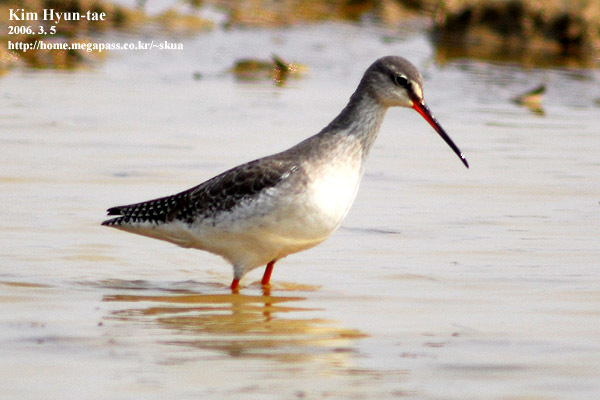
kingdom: Animalia
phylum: Chordata
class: Aves
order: Charadriiformes
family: Scolopacidae
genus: Tringa
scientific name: Tringa erythropus
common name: Spotted redshank
